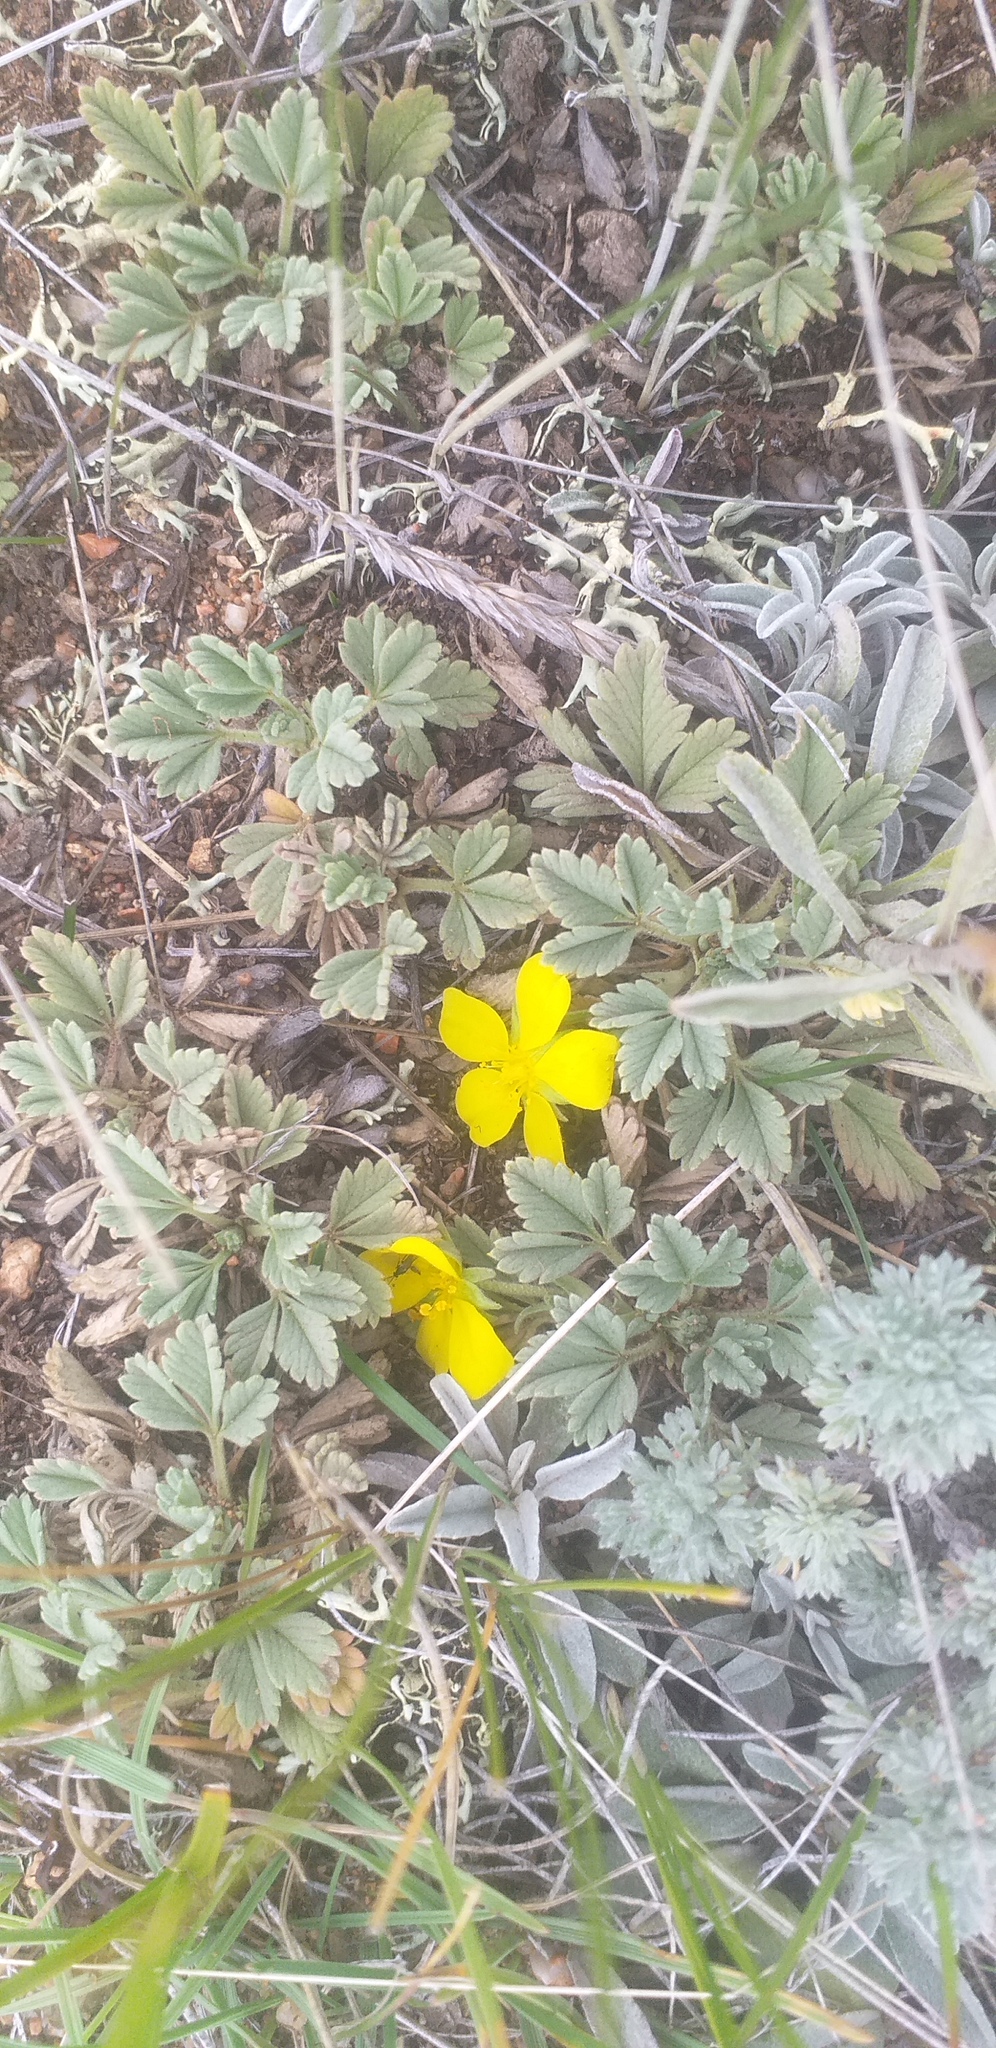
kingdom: Plantae
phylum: Tracheophyta
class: Magnoliopsida
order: Rosales
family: Rosaceae
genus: Potentilla
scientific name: Potentilla acaulis
